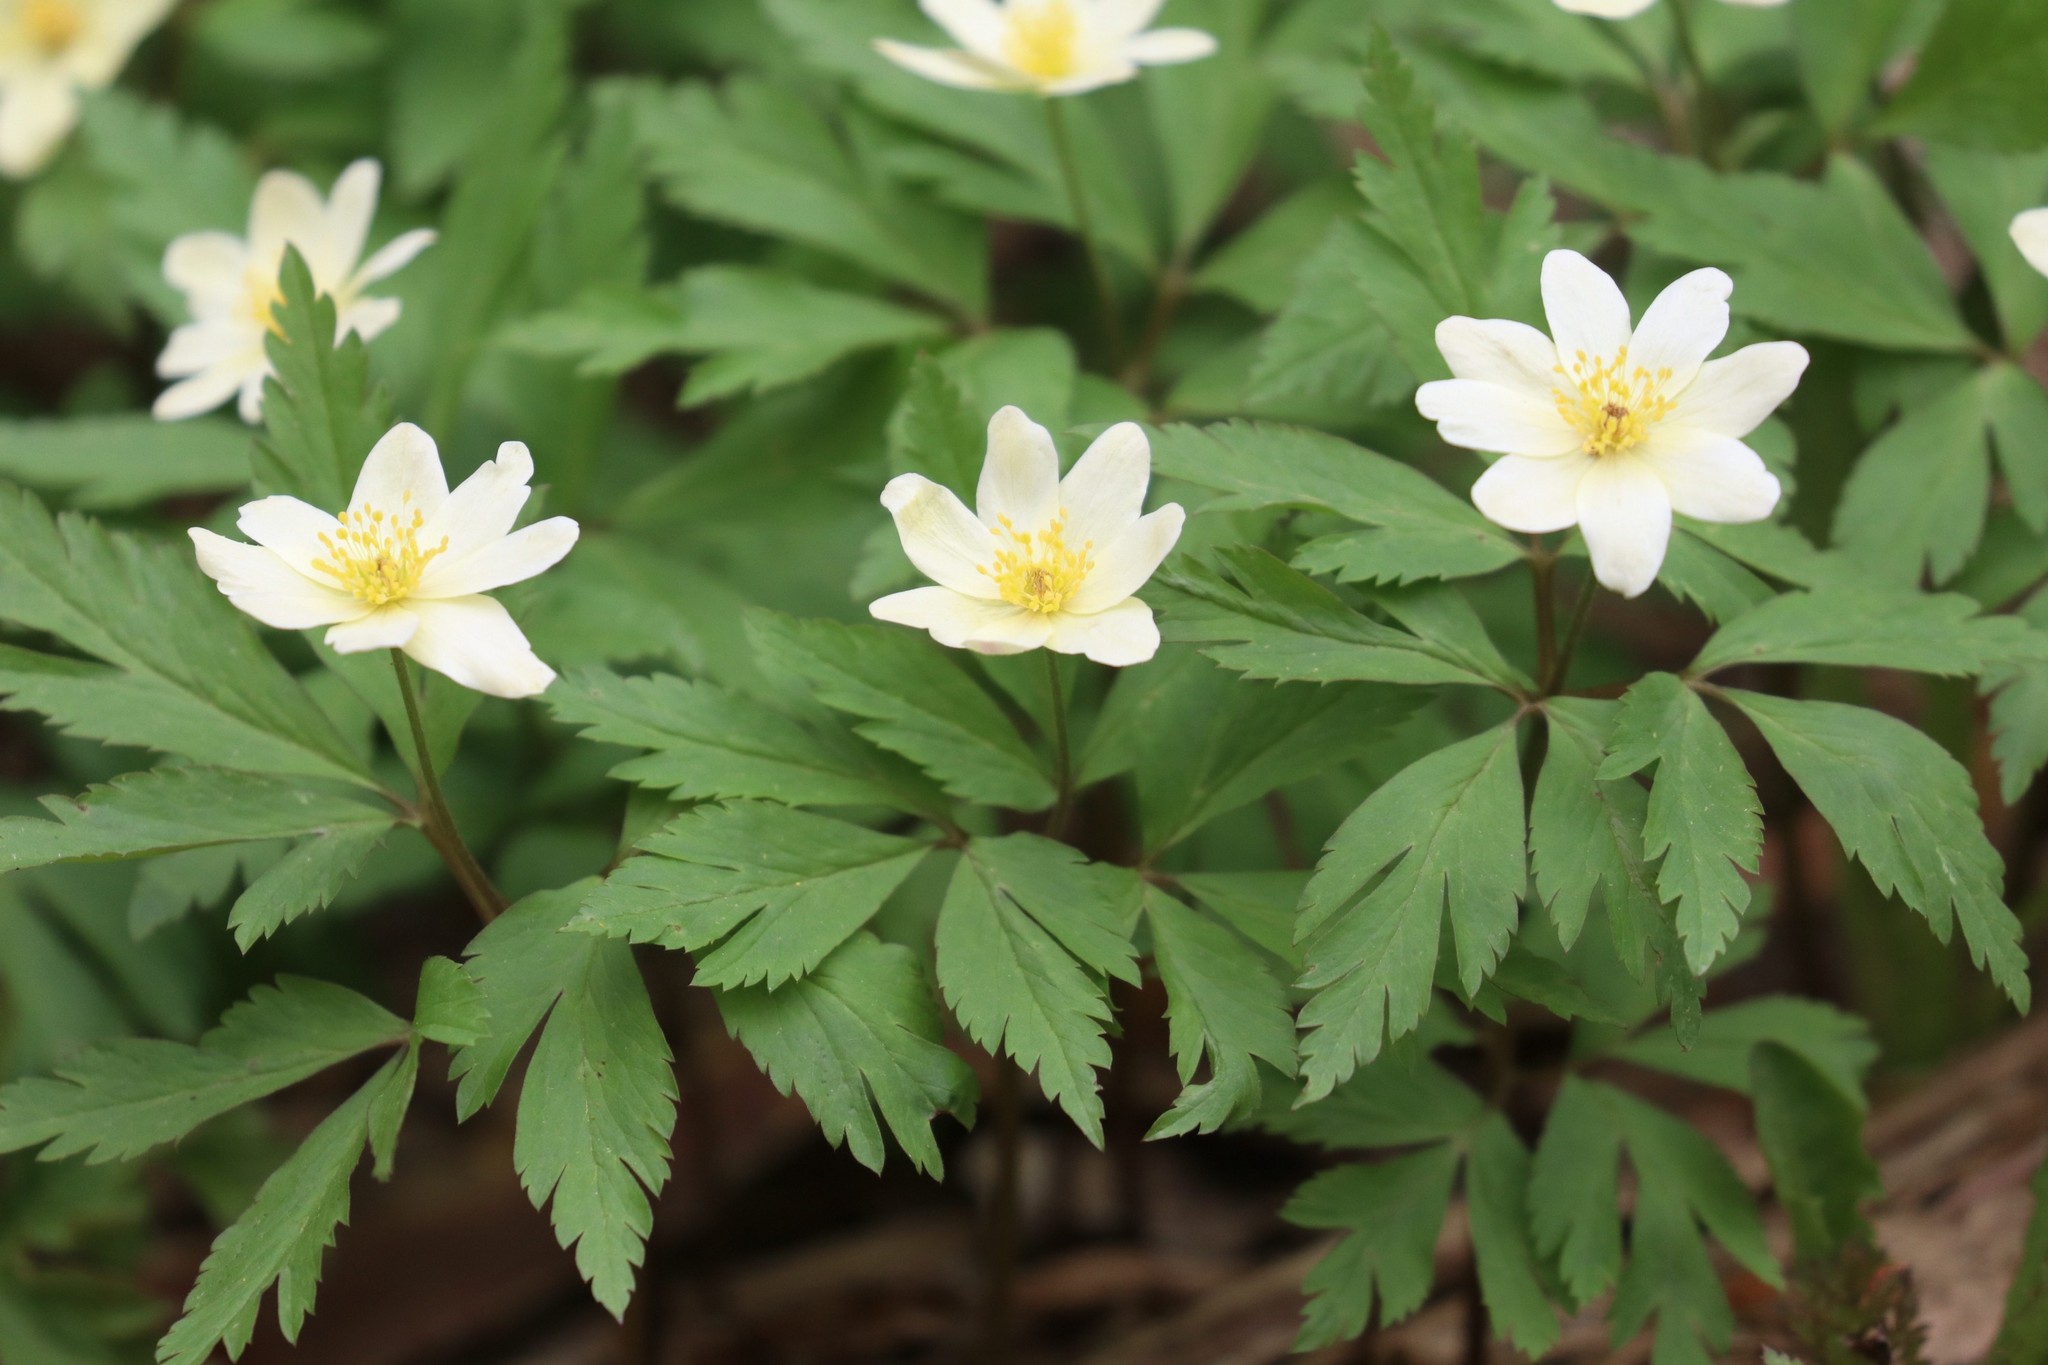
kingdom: Plantae
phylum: Tracheophyta
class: Magnoliopsida
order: Ranunculales
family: Ranunculaceae
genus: Anemone
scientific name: Anemone korzchinskyi
